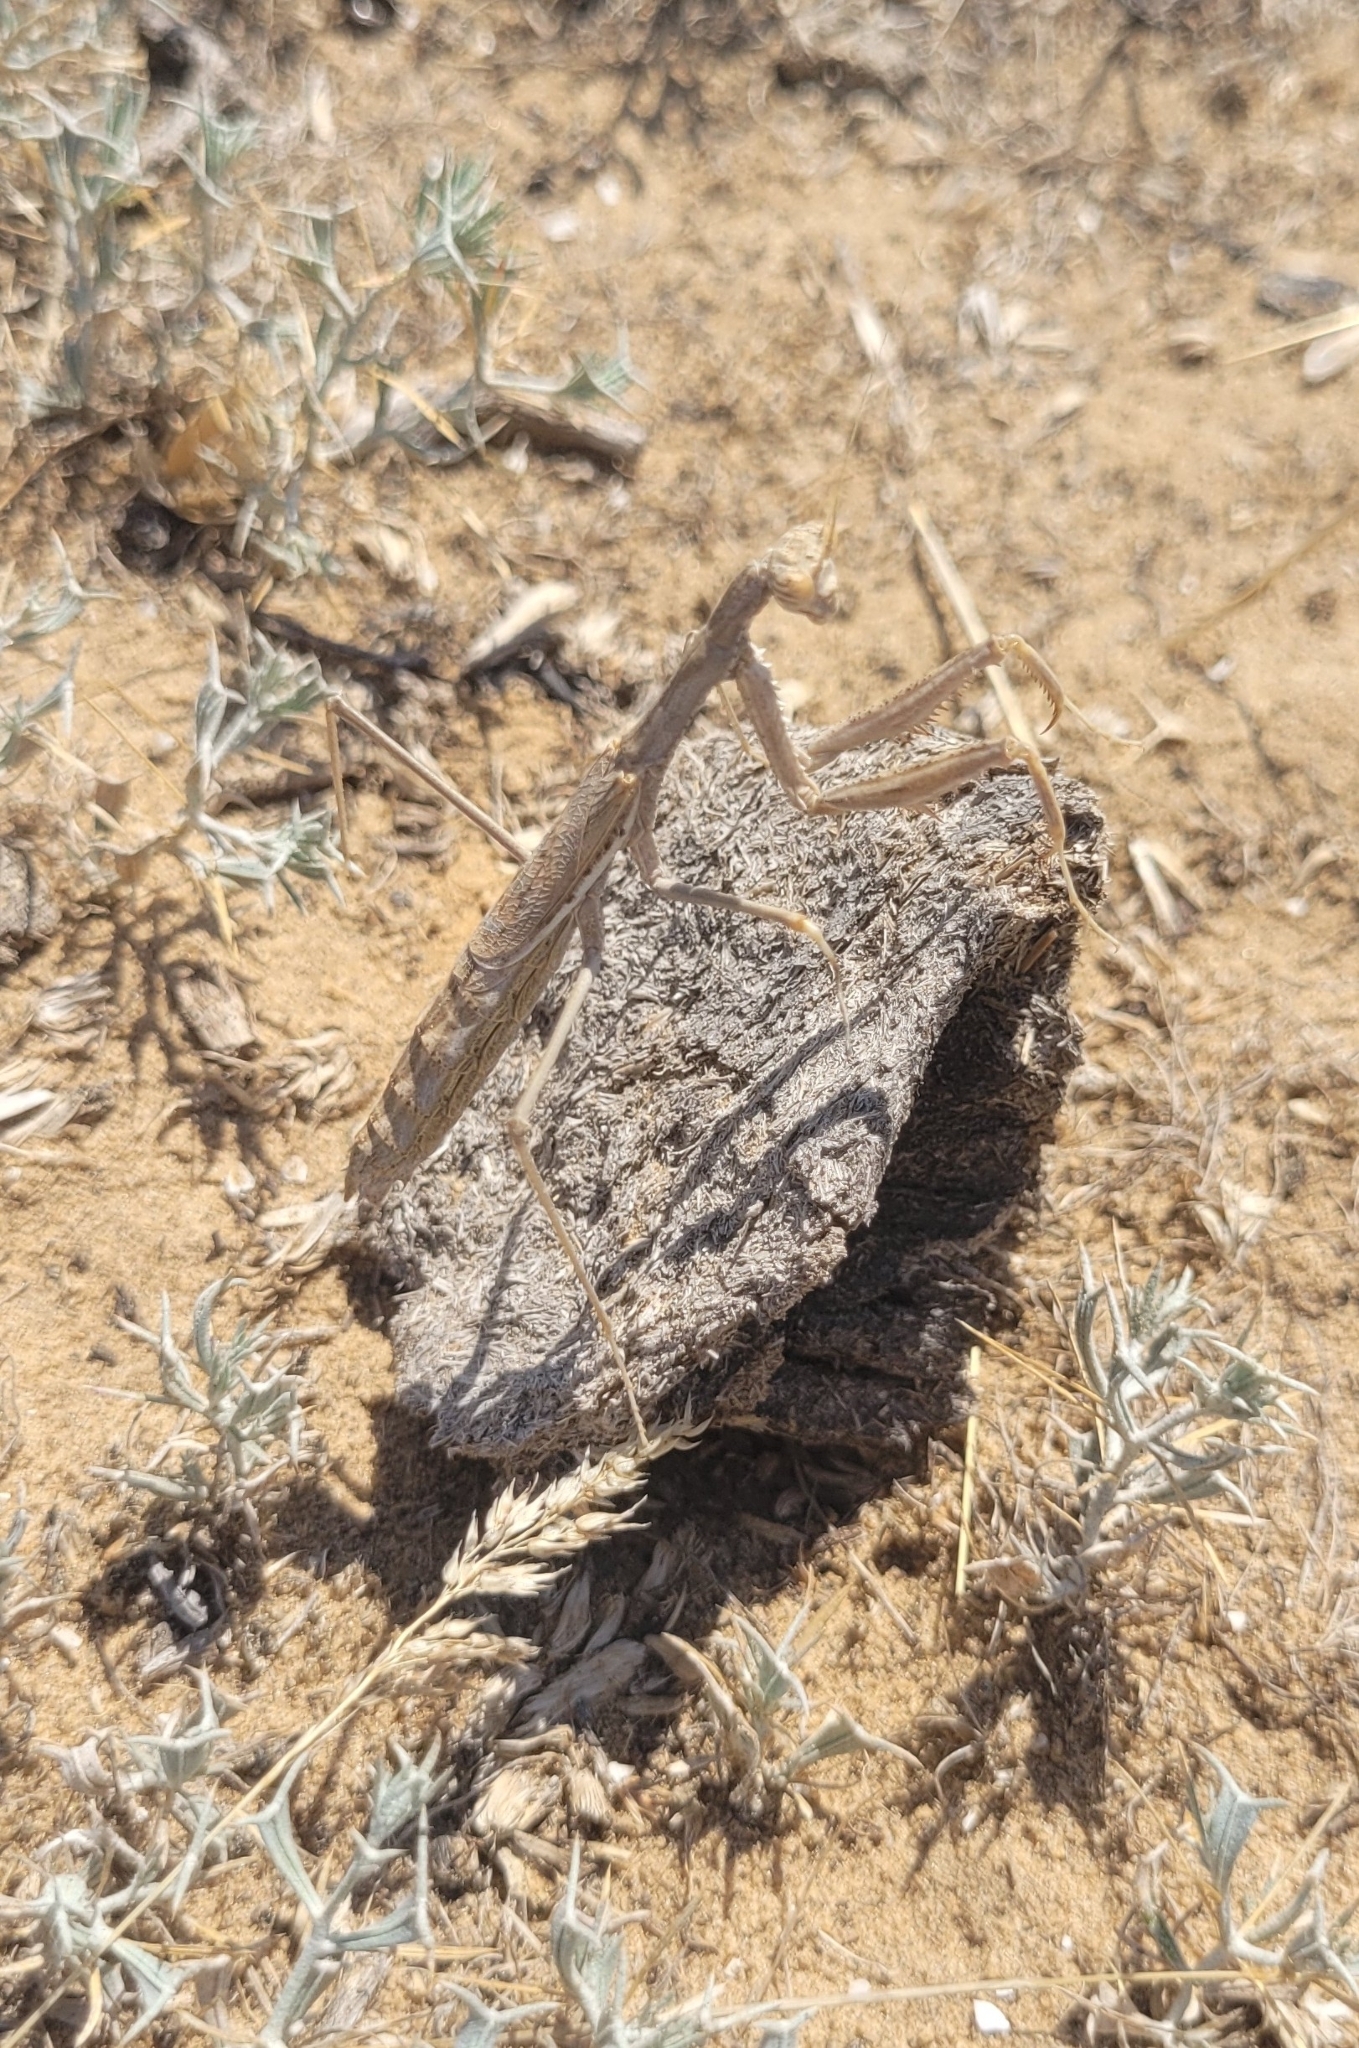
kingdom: Animalia
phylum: Arthropoda
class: Insecta
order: Mantodea
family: Rivetinidae
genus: Rivetina
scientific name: Rivetina nana
